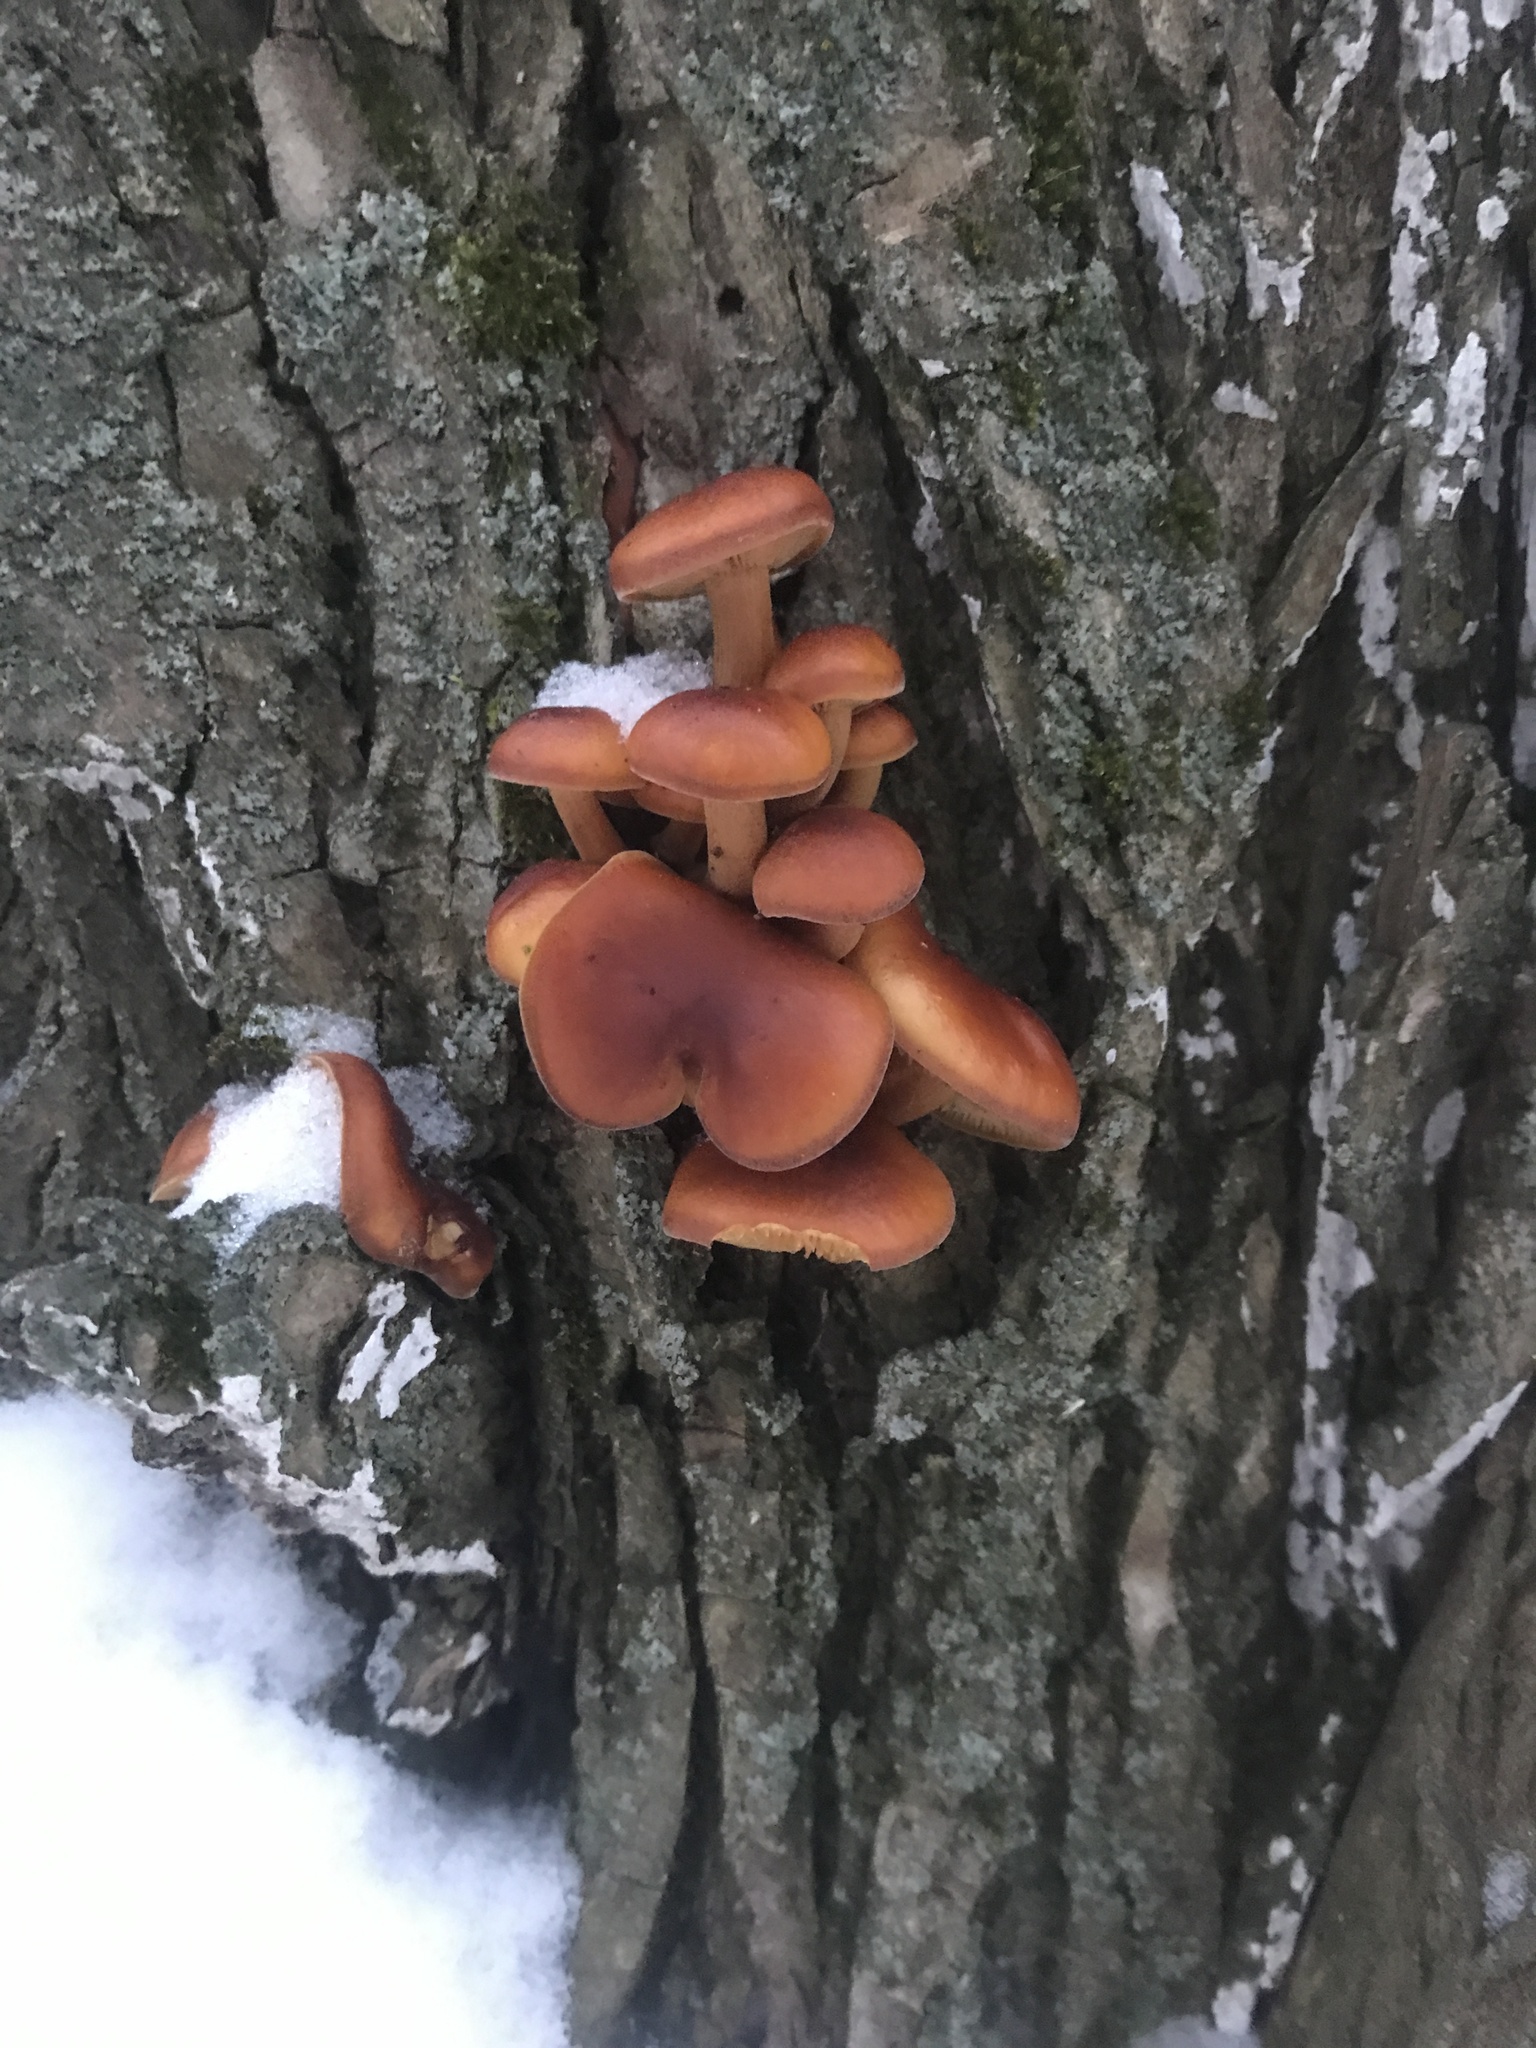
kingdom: Fungi
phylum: Basidiomycota
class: Agaricomycetes
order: Agaricales
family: Physalacriaceae
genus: Flammulina
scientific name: Flammulina
